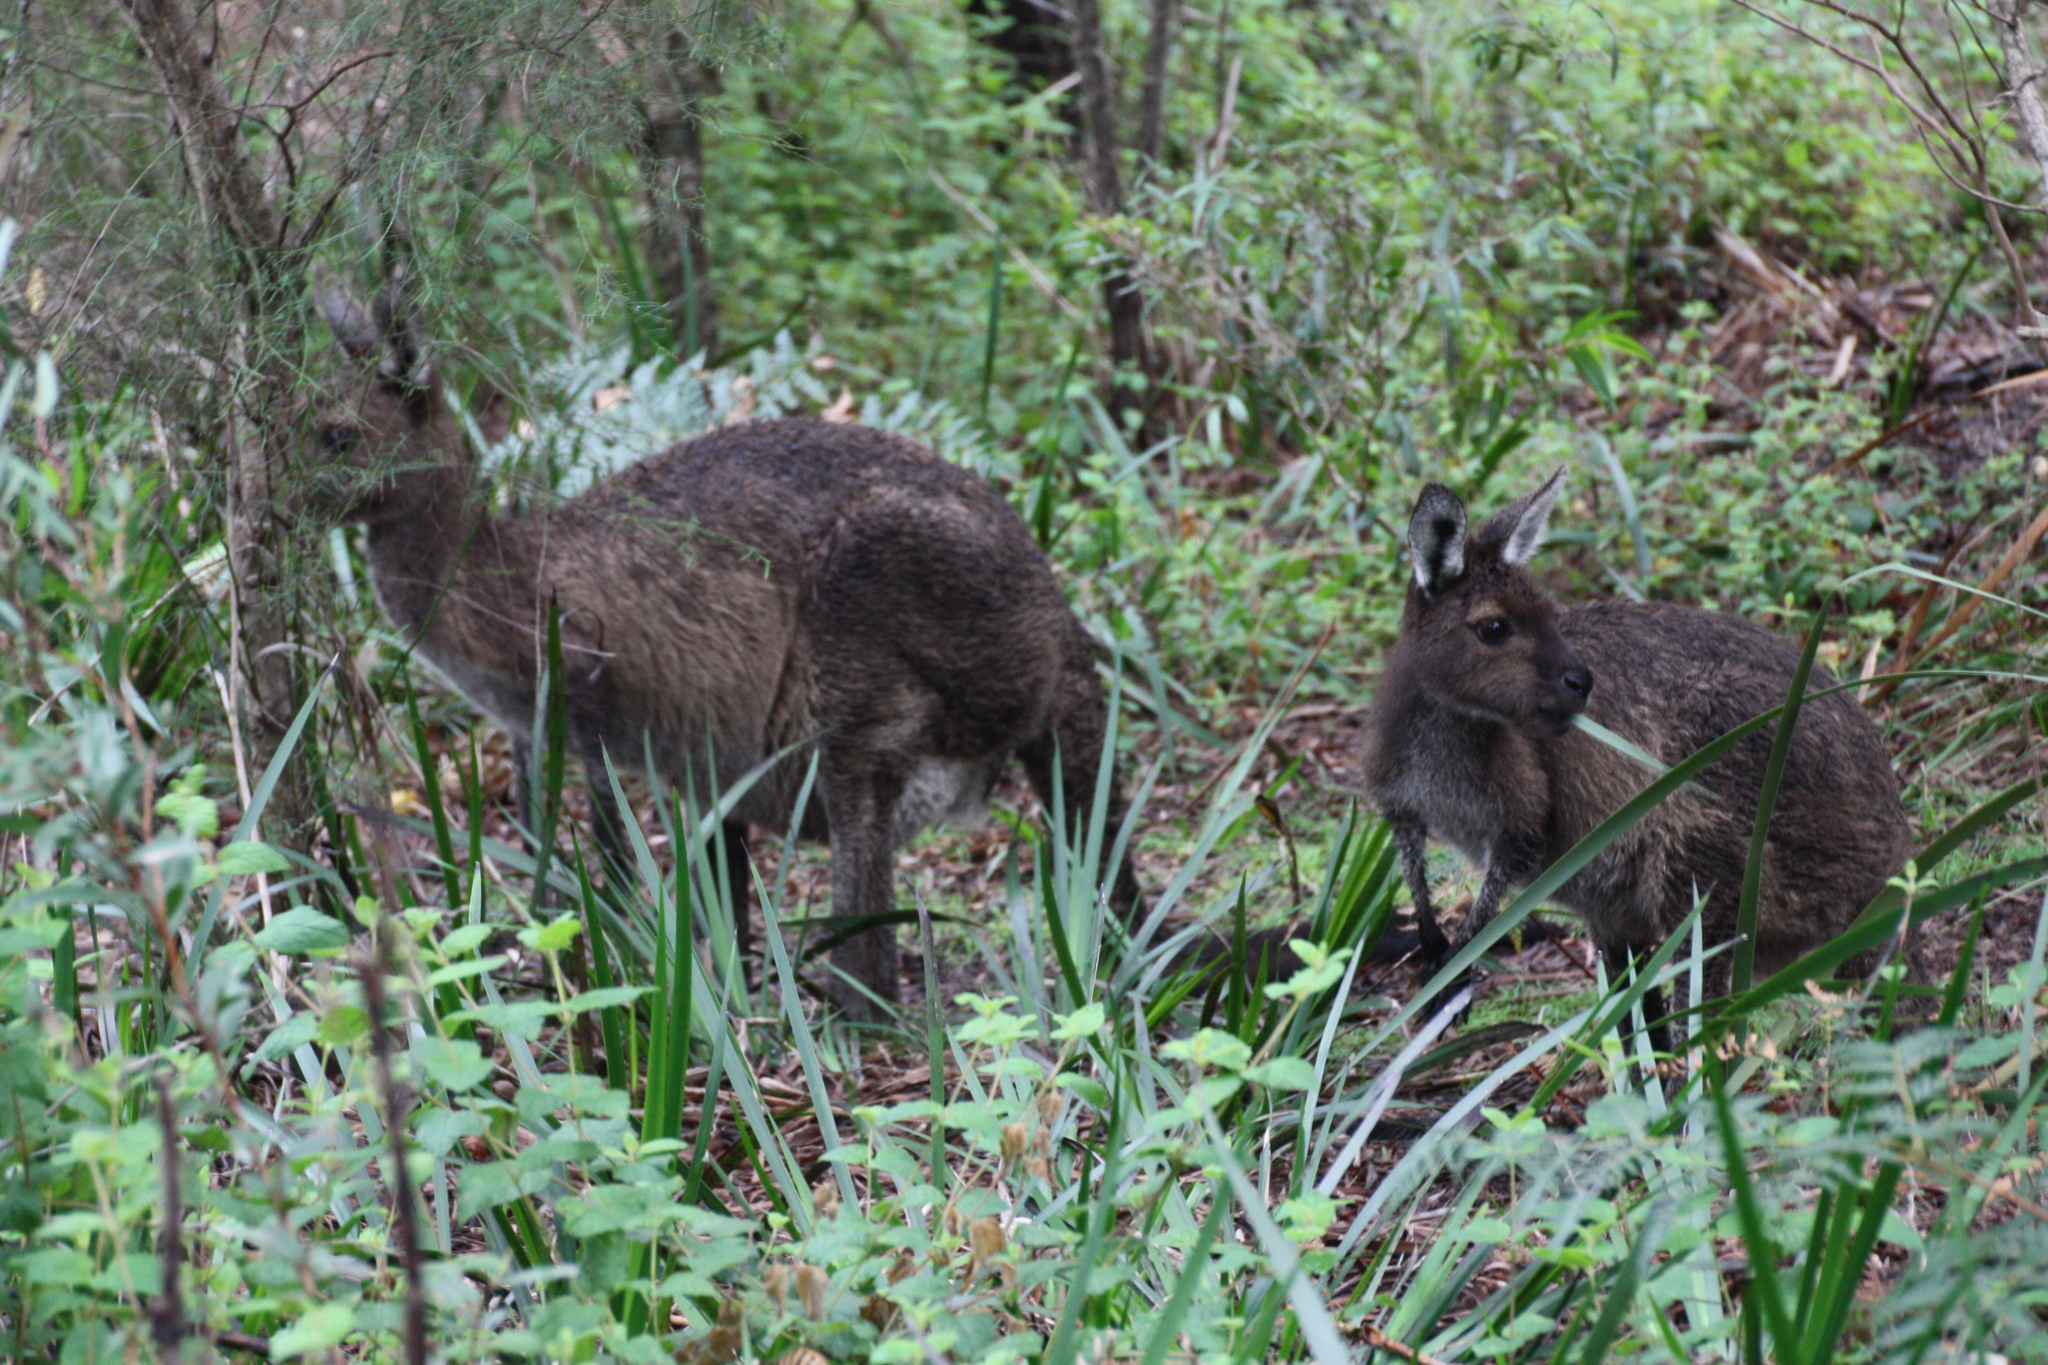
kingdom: Animalia
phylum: Chordata
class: Mammalia
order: Diprotodontia
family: Macropodidae
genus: Macropus
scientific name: Macropus fuliginosus
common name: Western grey kangaroo
